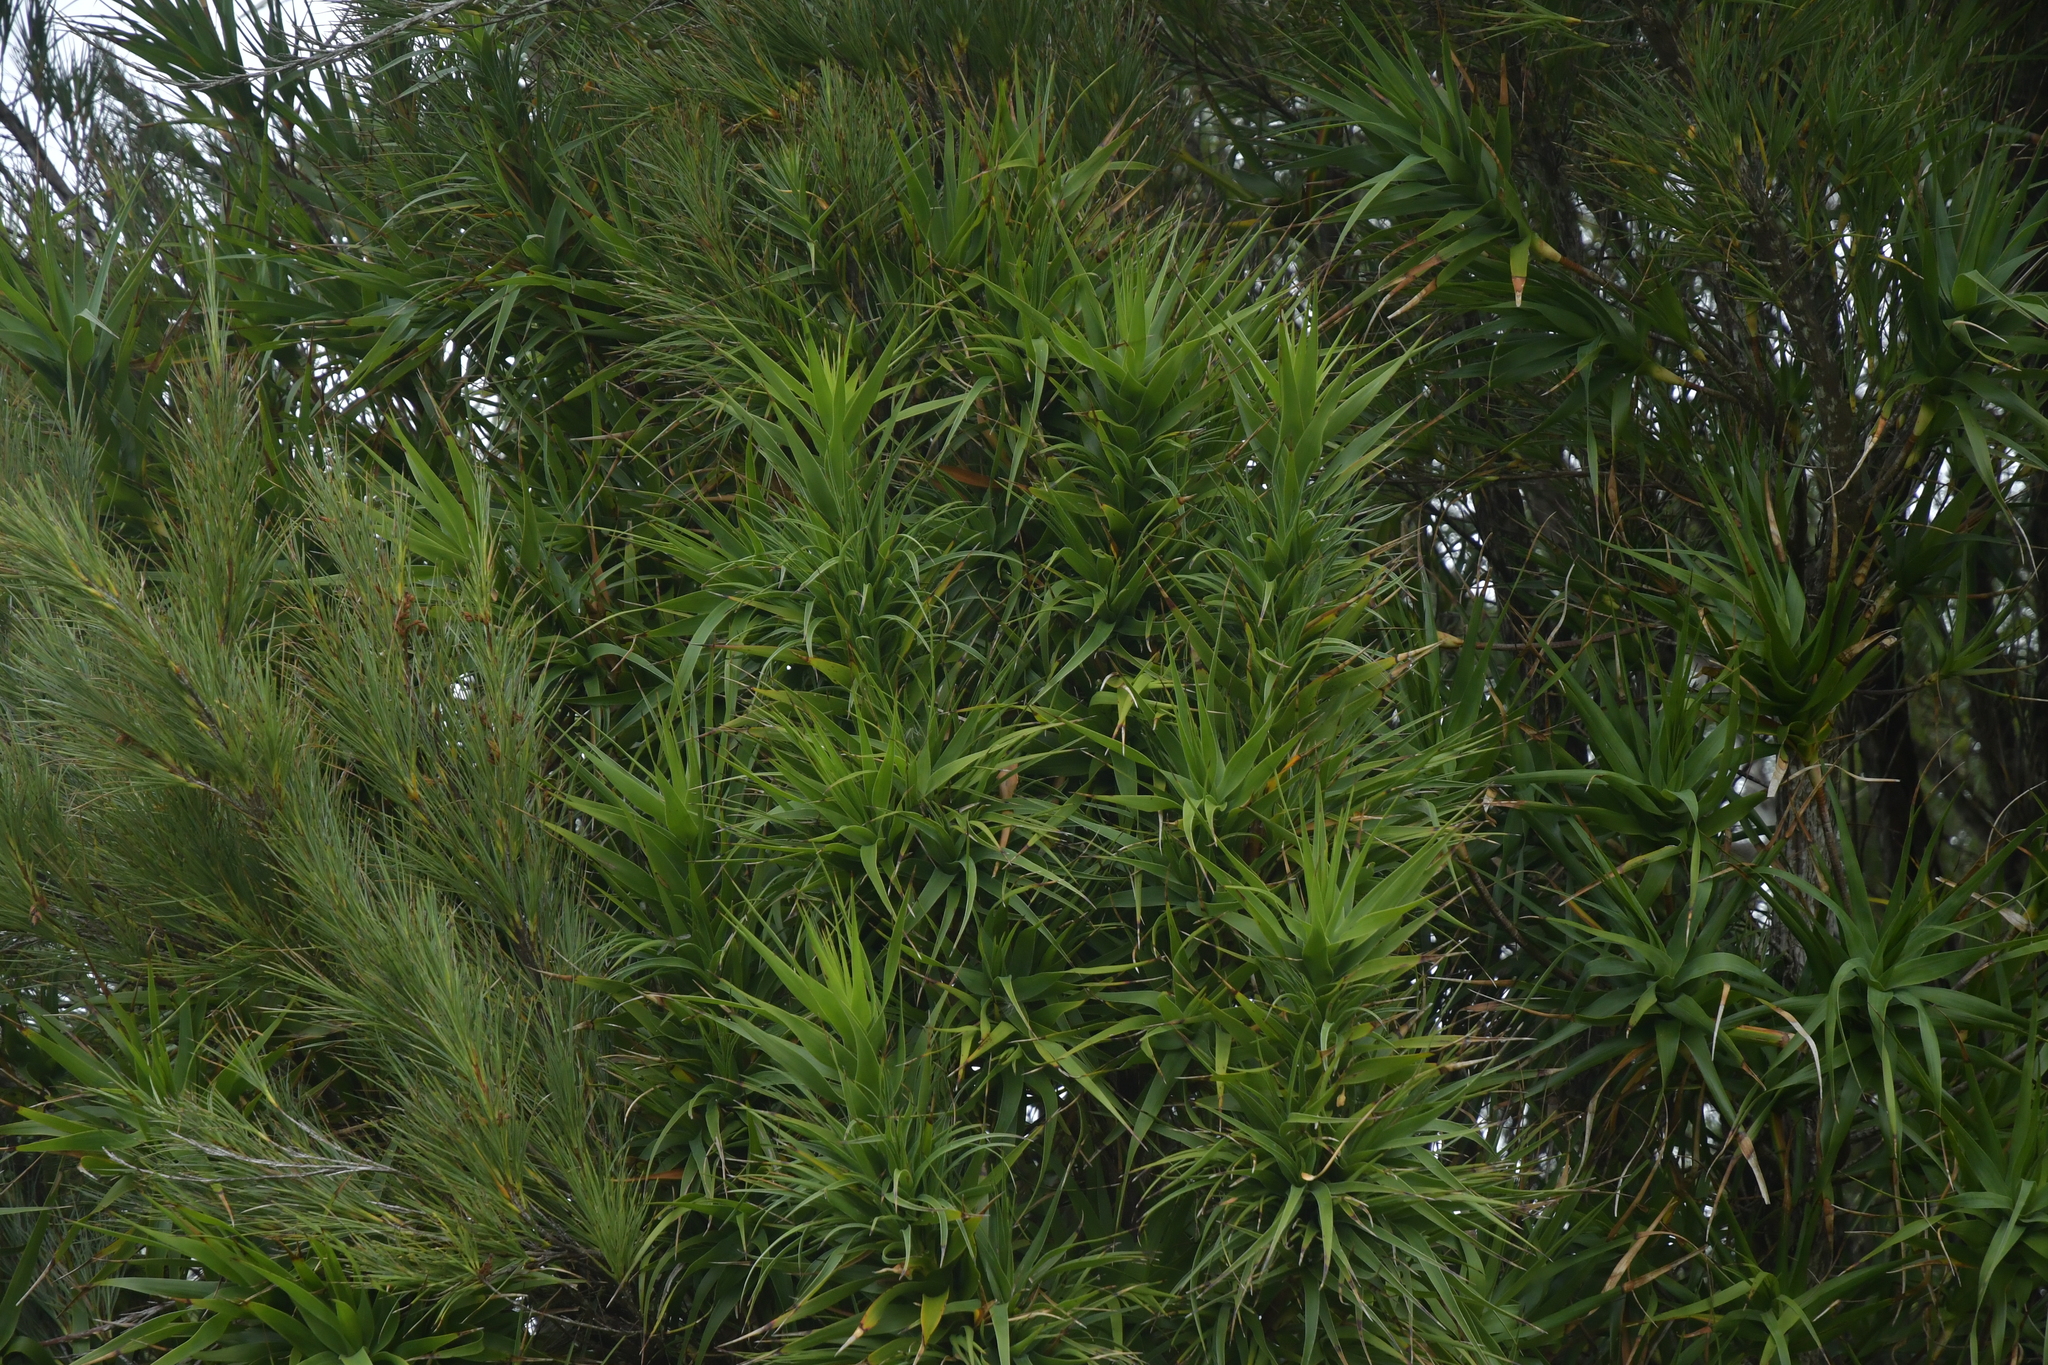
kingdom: Plantae
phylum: Tracheophyta
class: Magnoliopsida
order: Ericales
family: Ericaceae
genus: Dracophyllum
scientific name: Dracophyllum arboreum
